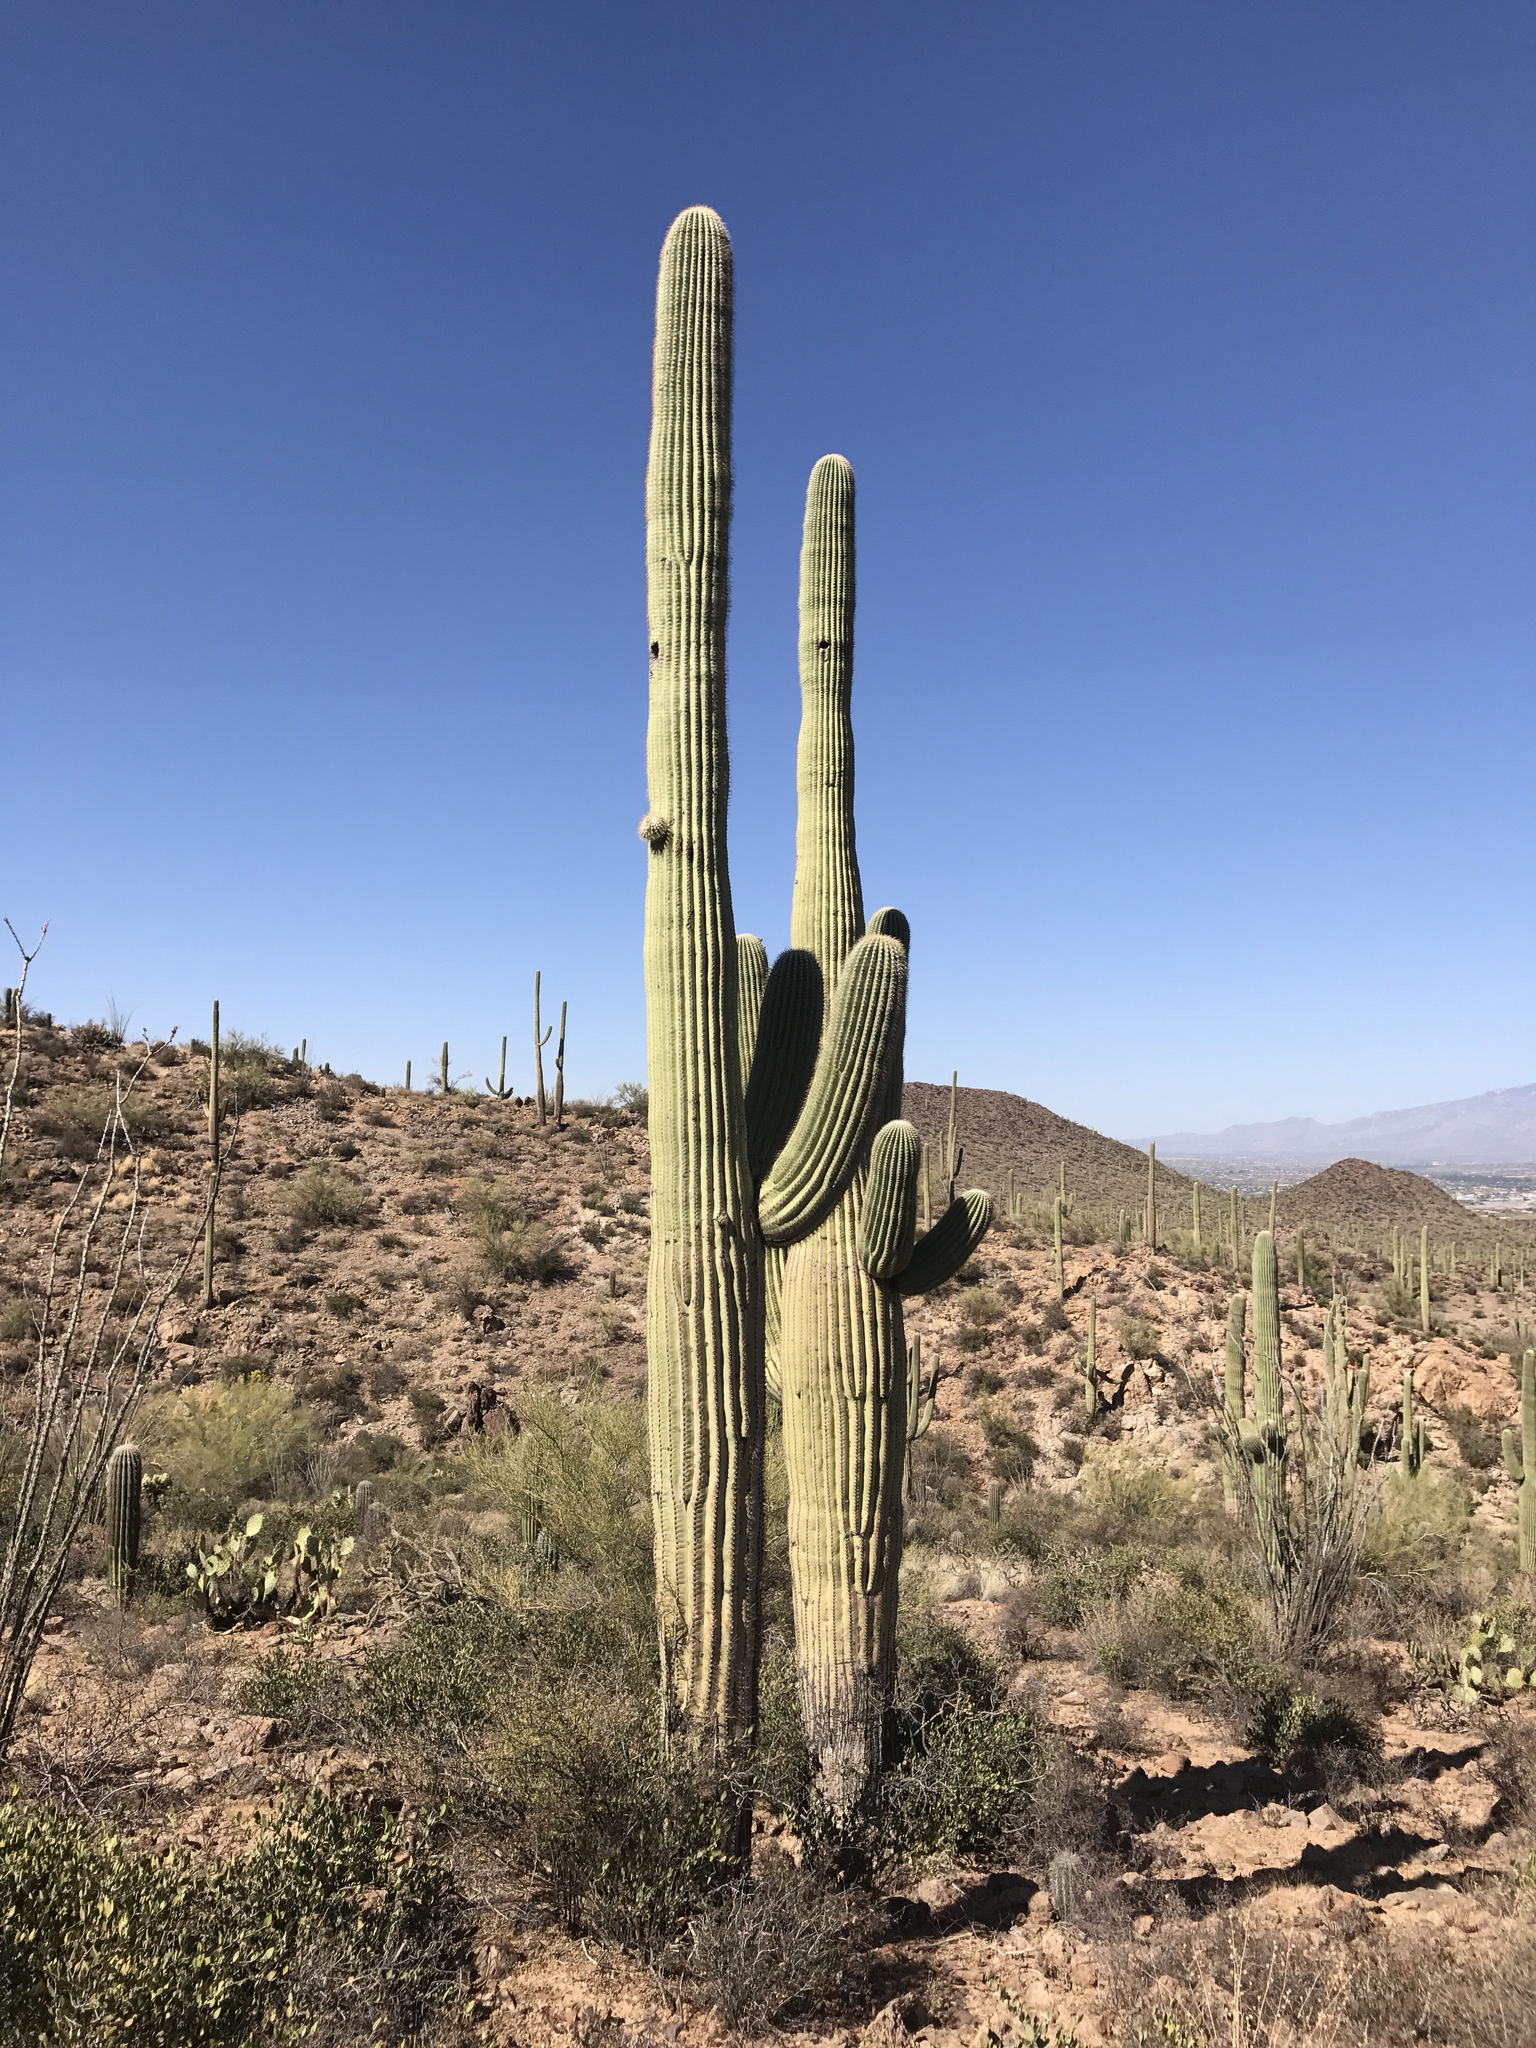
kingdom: Plantae
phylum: Tracheophyta
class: Magnoliopsida
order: Caryophyllales
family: Cactaceae
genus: Carnegiea
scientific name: Carnegiea gigantea
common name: Saguaro
